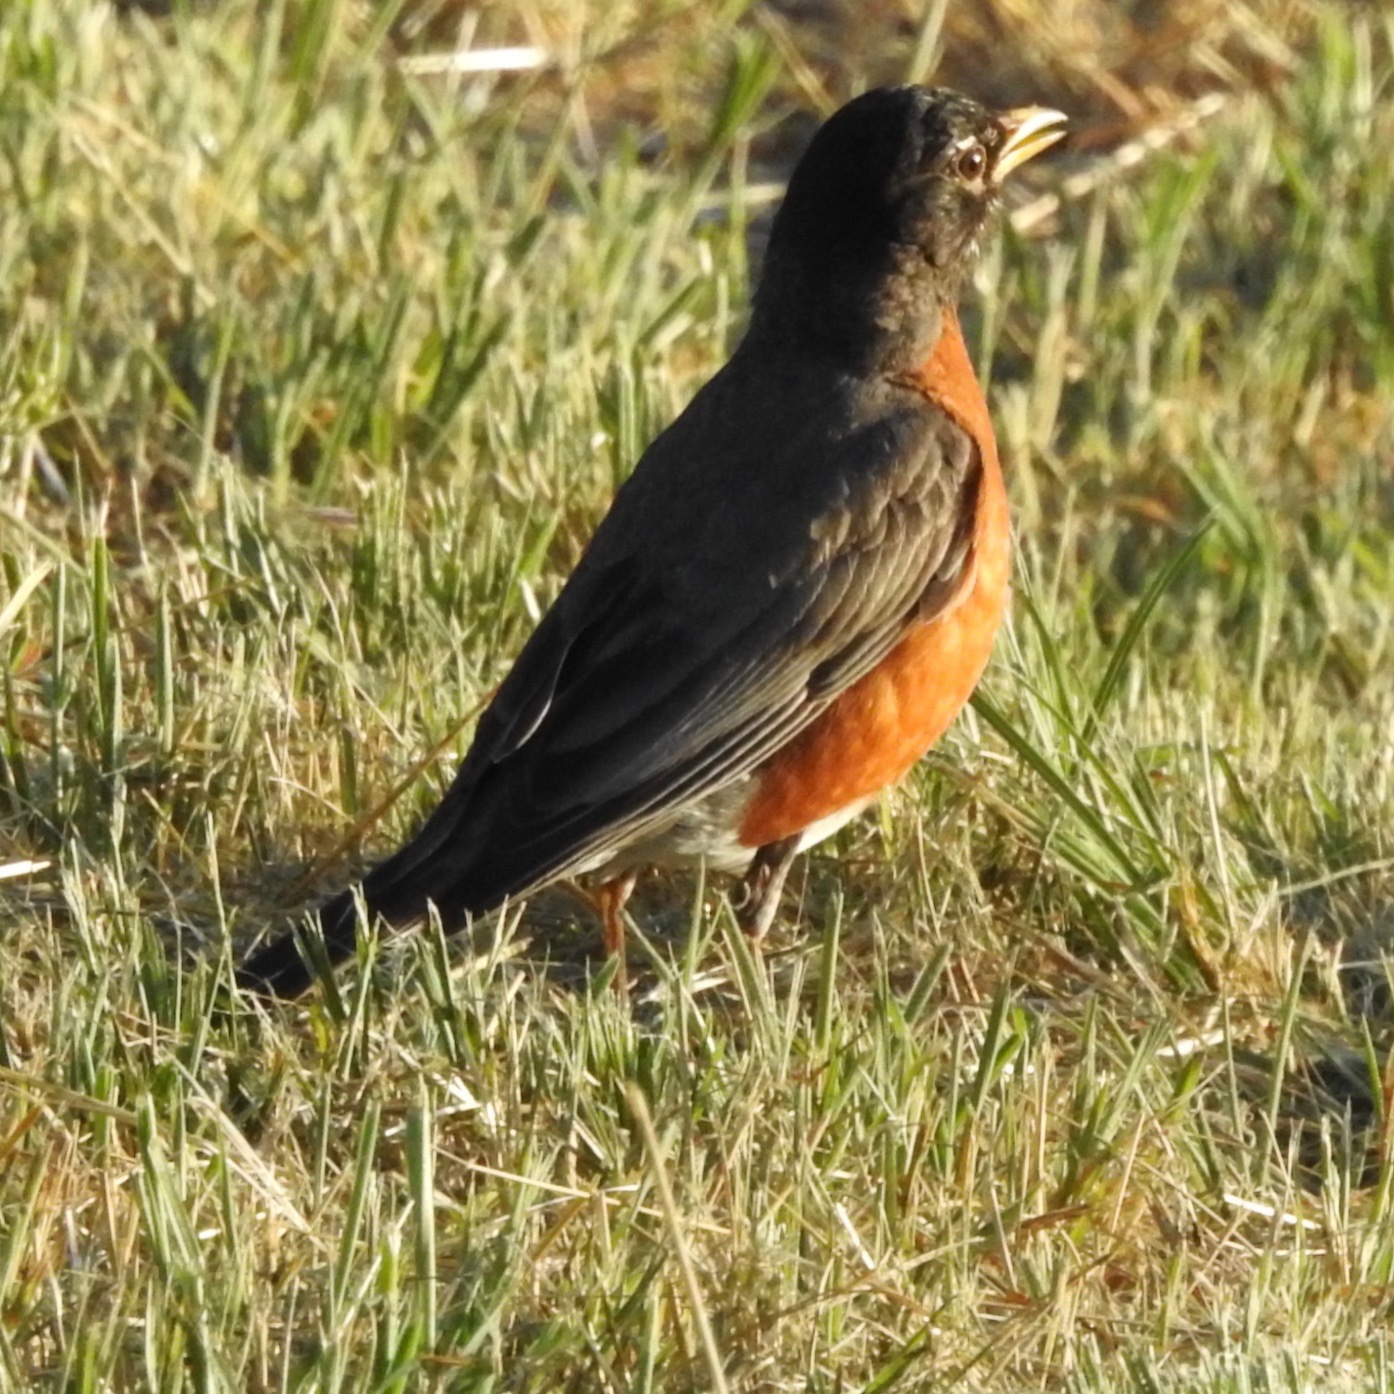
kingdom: Animalia
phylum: Chordata
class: Aves
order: Passeriformes
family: Turdidae
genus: Turdus
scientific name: Turdus migratorius
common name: American robin
